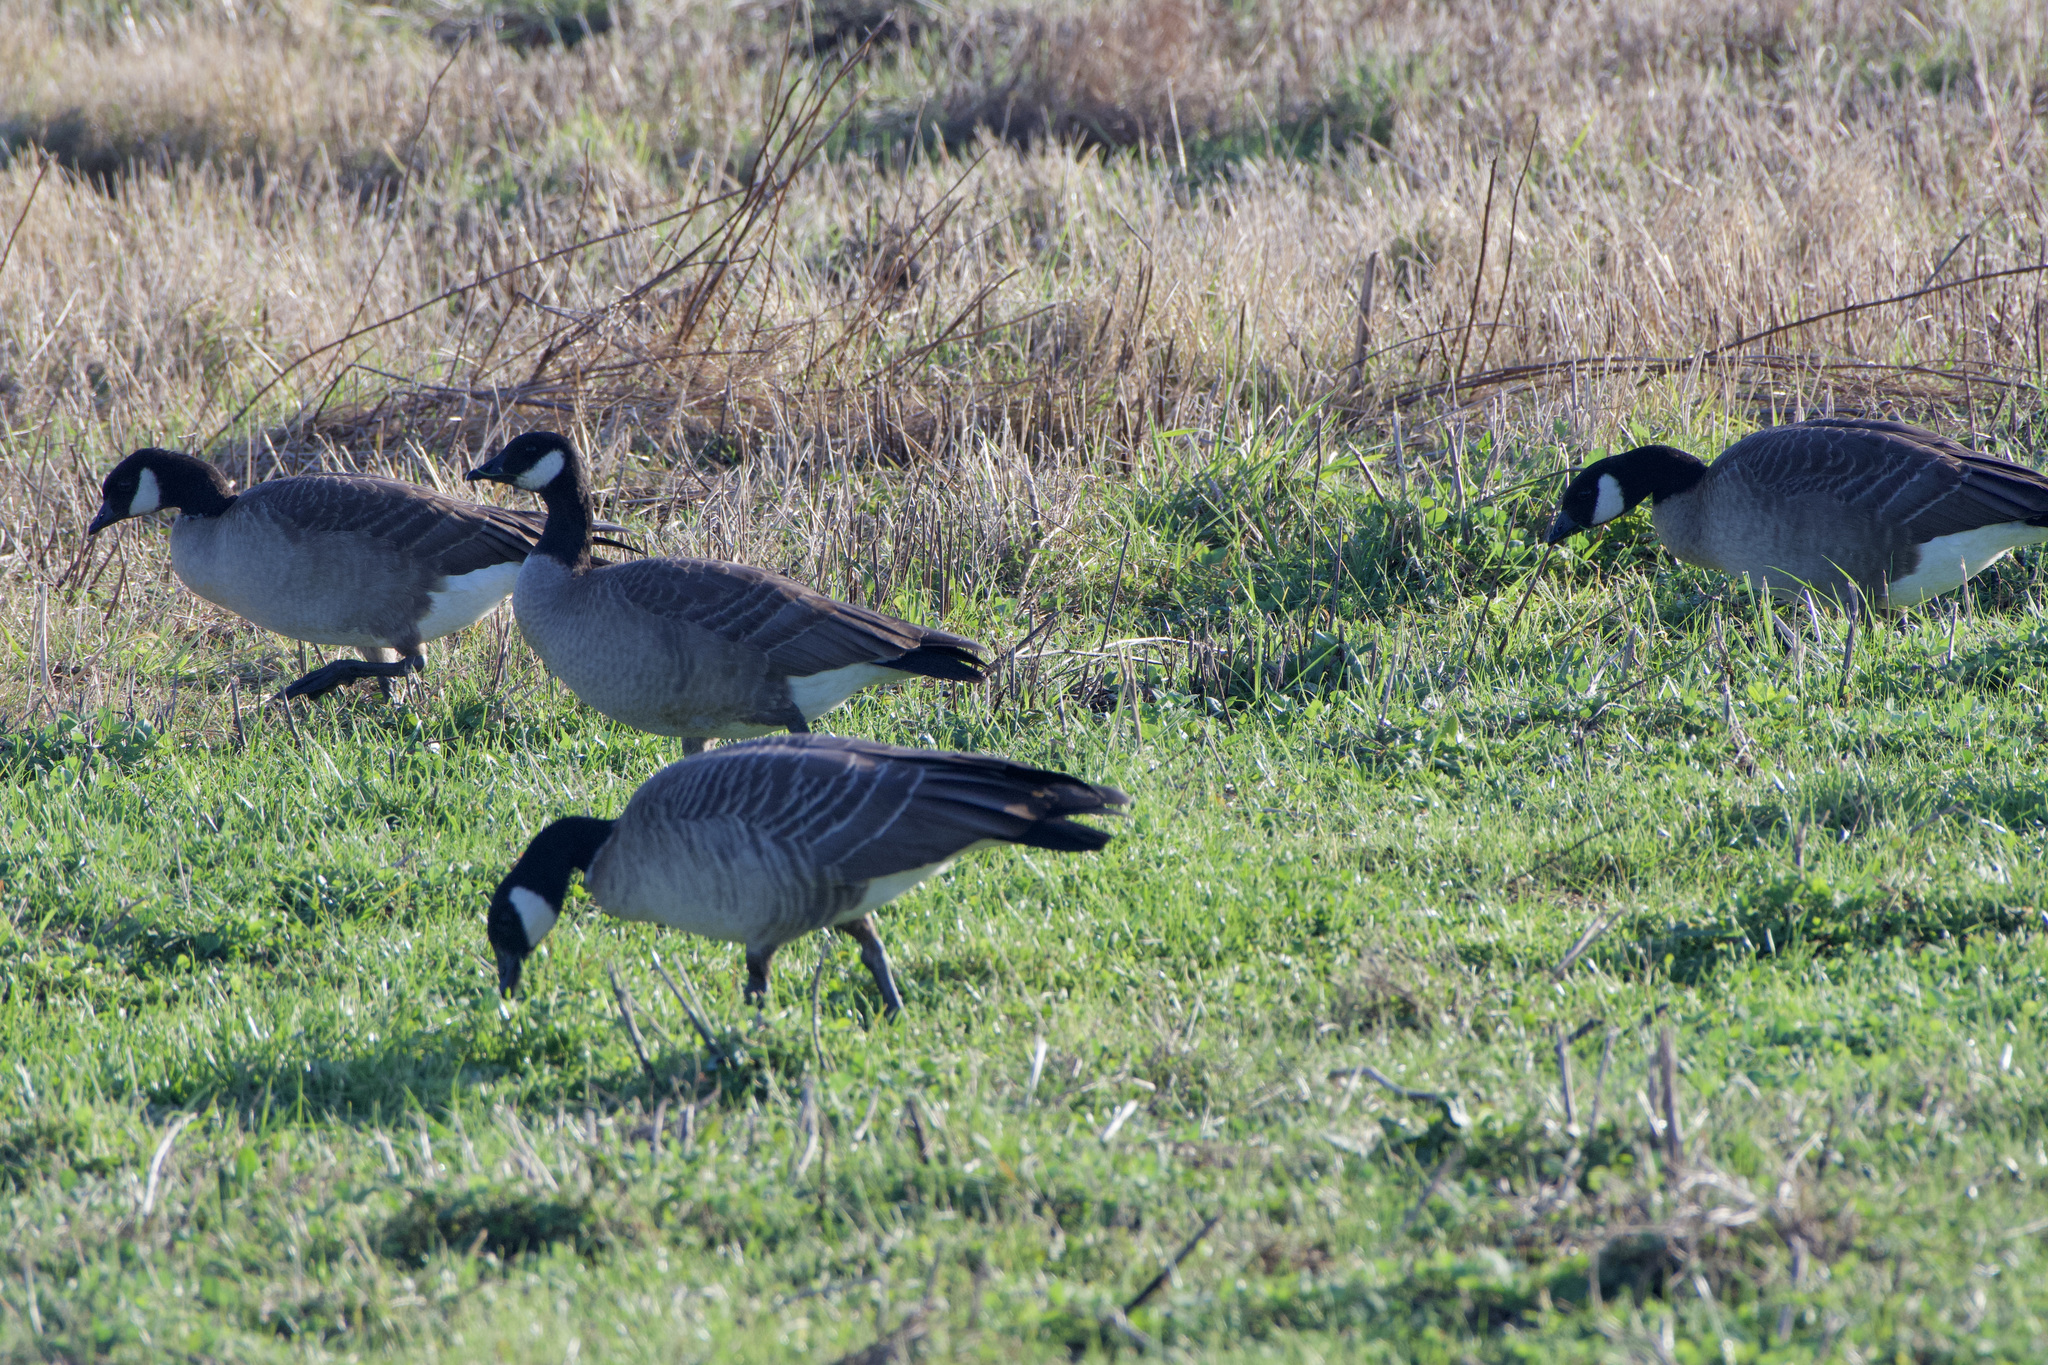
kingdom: Animalia
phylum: Chordata
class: Aves
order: Anseriformes
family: Anatidae
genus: Branta
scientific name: Branta hutchinsii
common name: Cackling goose
